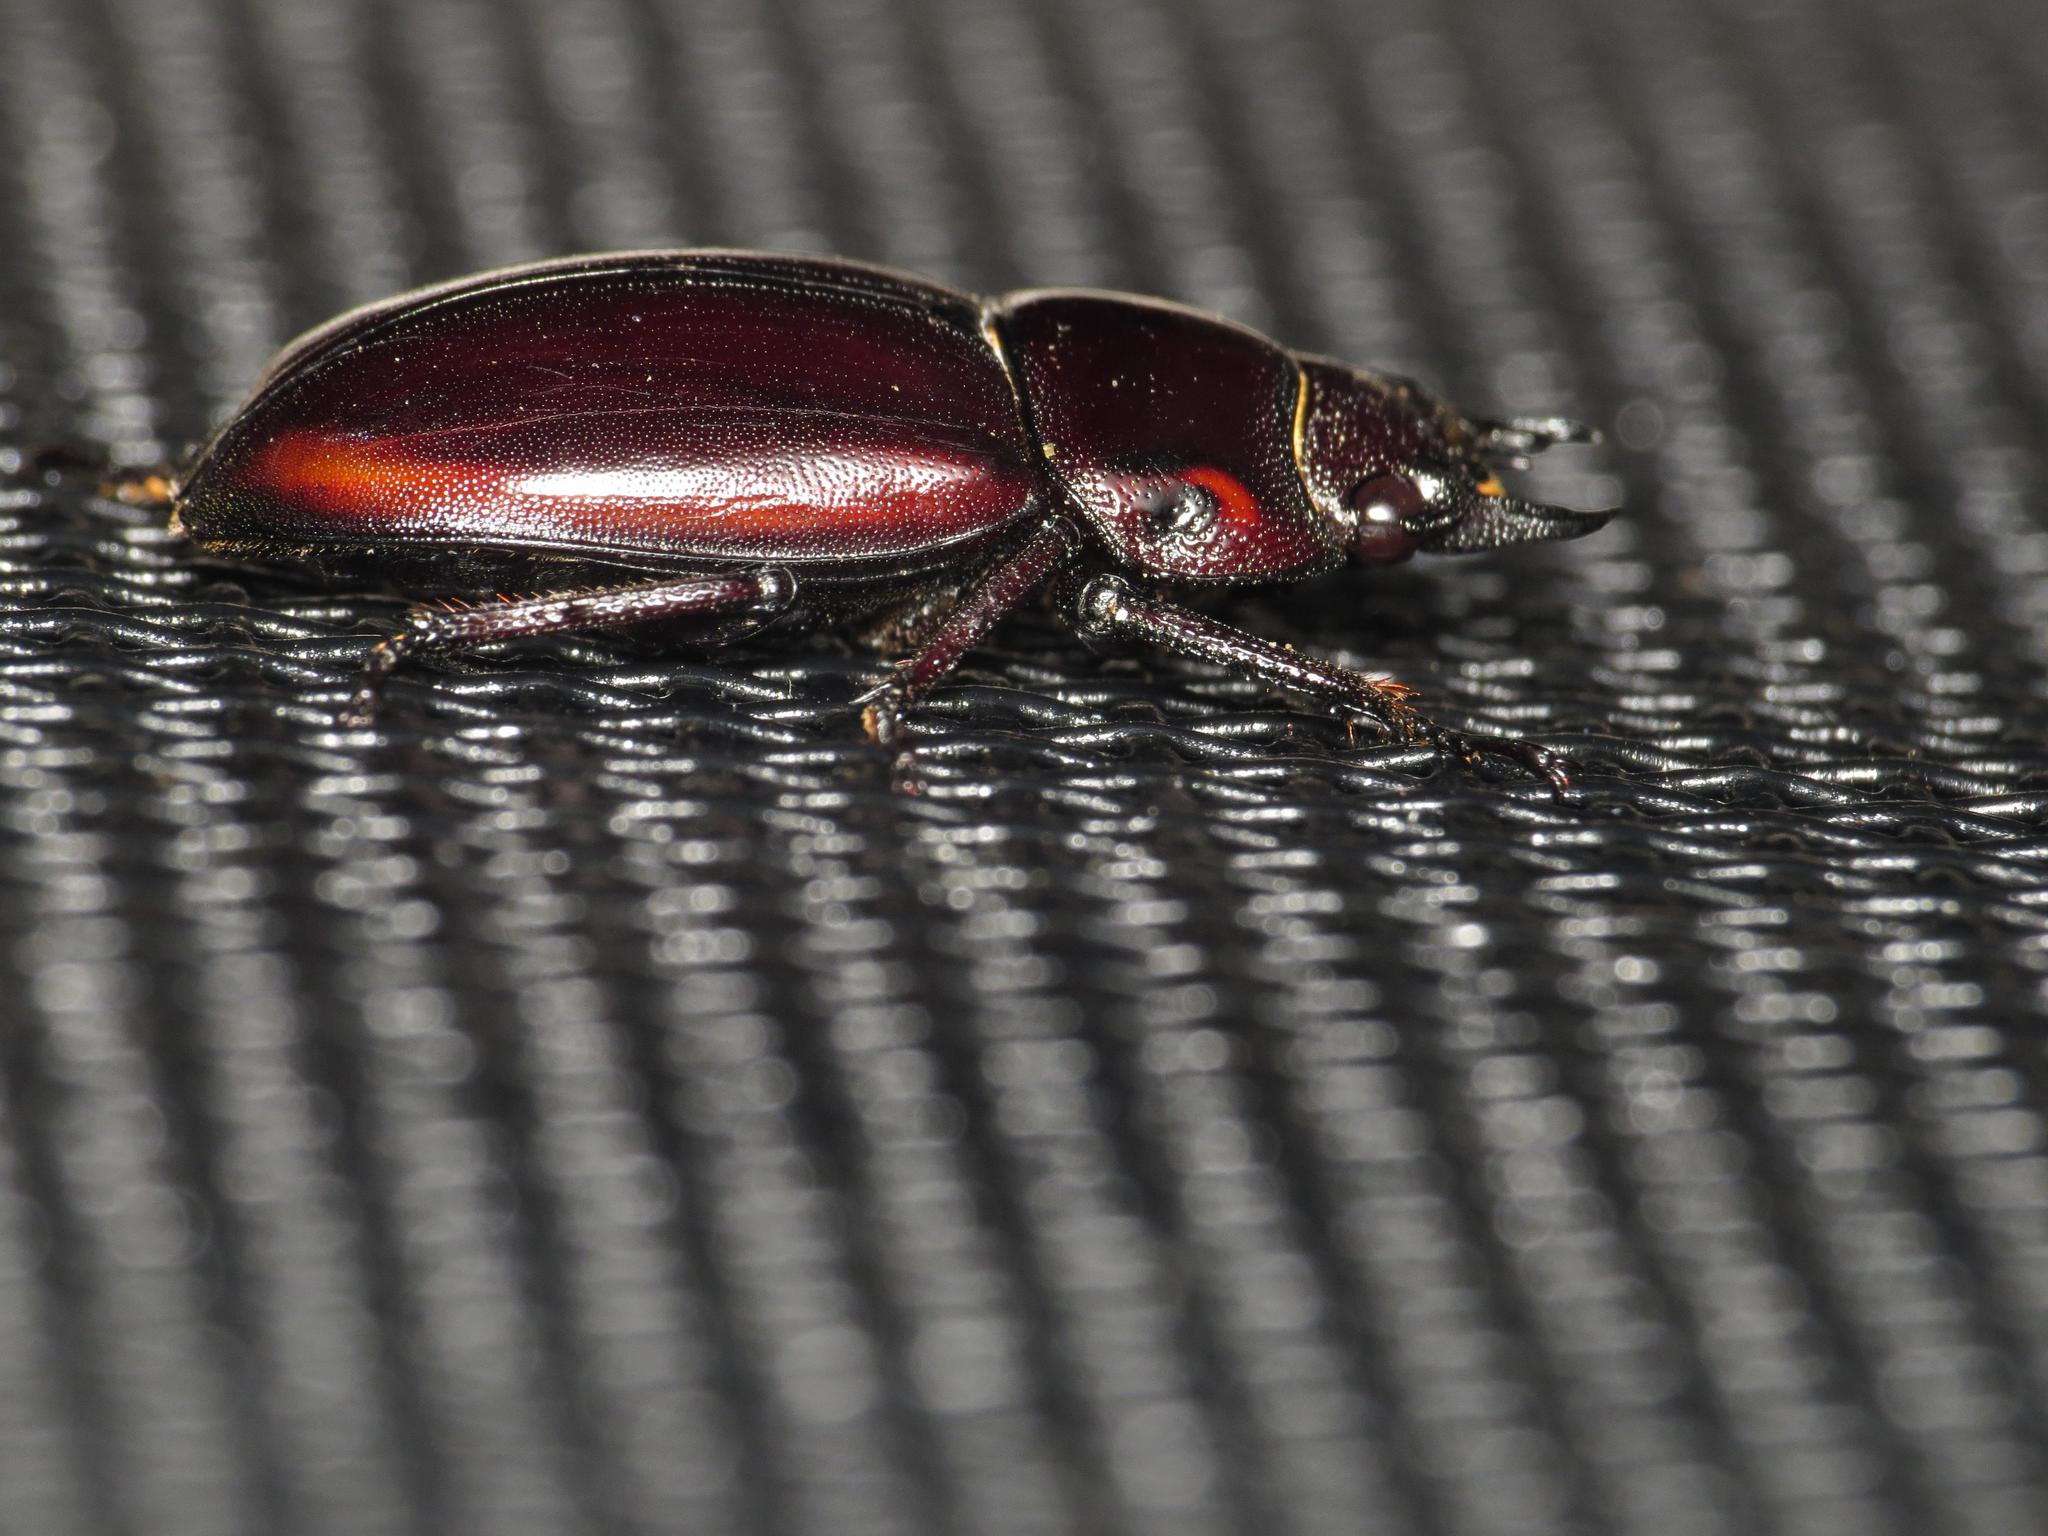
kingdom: Animalia
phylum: Arthropoda
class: Insecta
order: Coleoptera
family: Lucanidae
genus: Prosopocoilus
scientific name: Prosopocoilus torresensis
